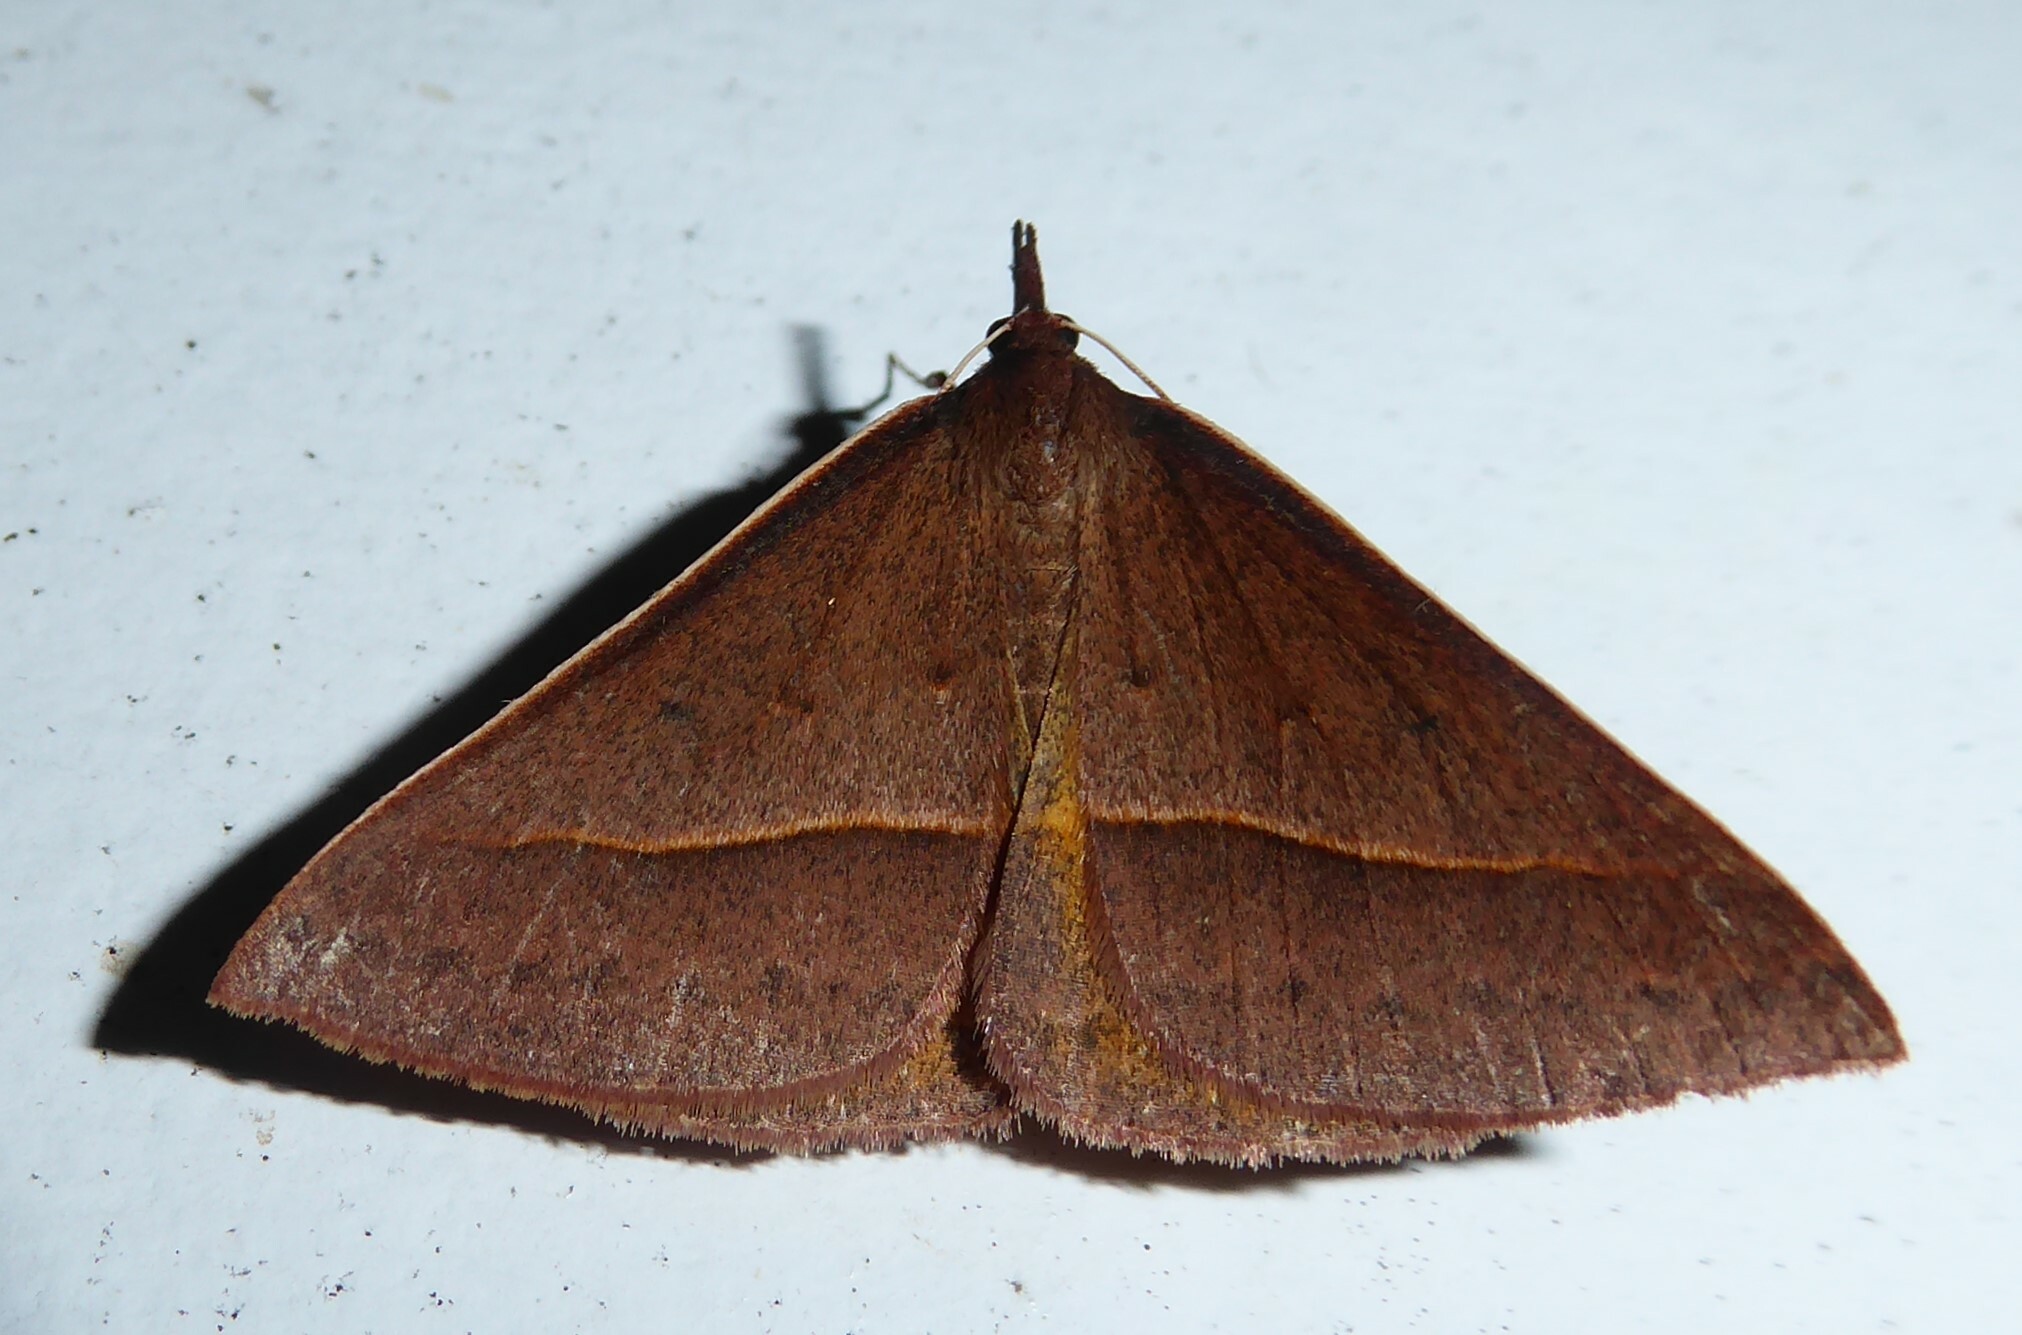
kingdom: Animalia
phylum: Arthropoda
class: Insecta
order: Lepidoptera
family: Geometridae
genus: Epidesmia
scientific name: Epidesmia chilonaria
